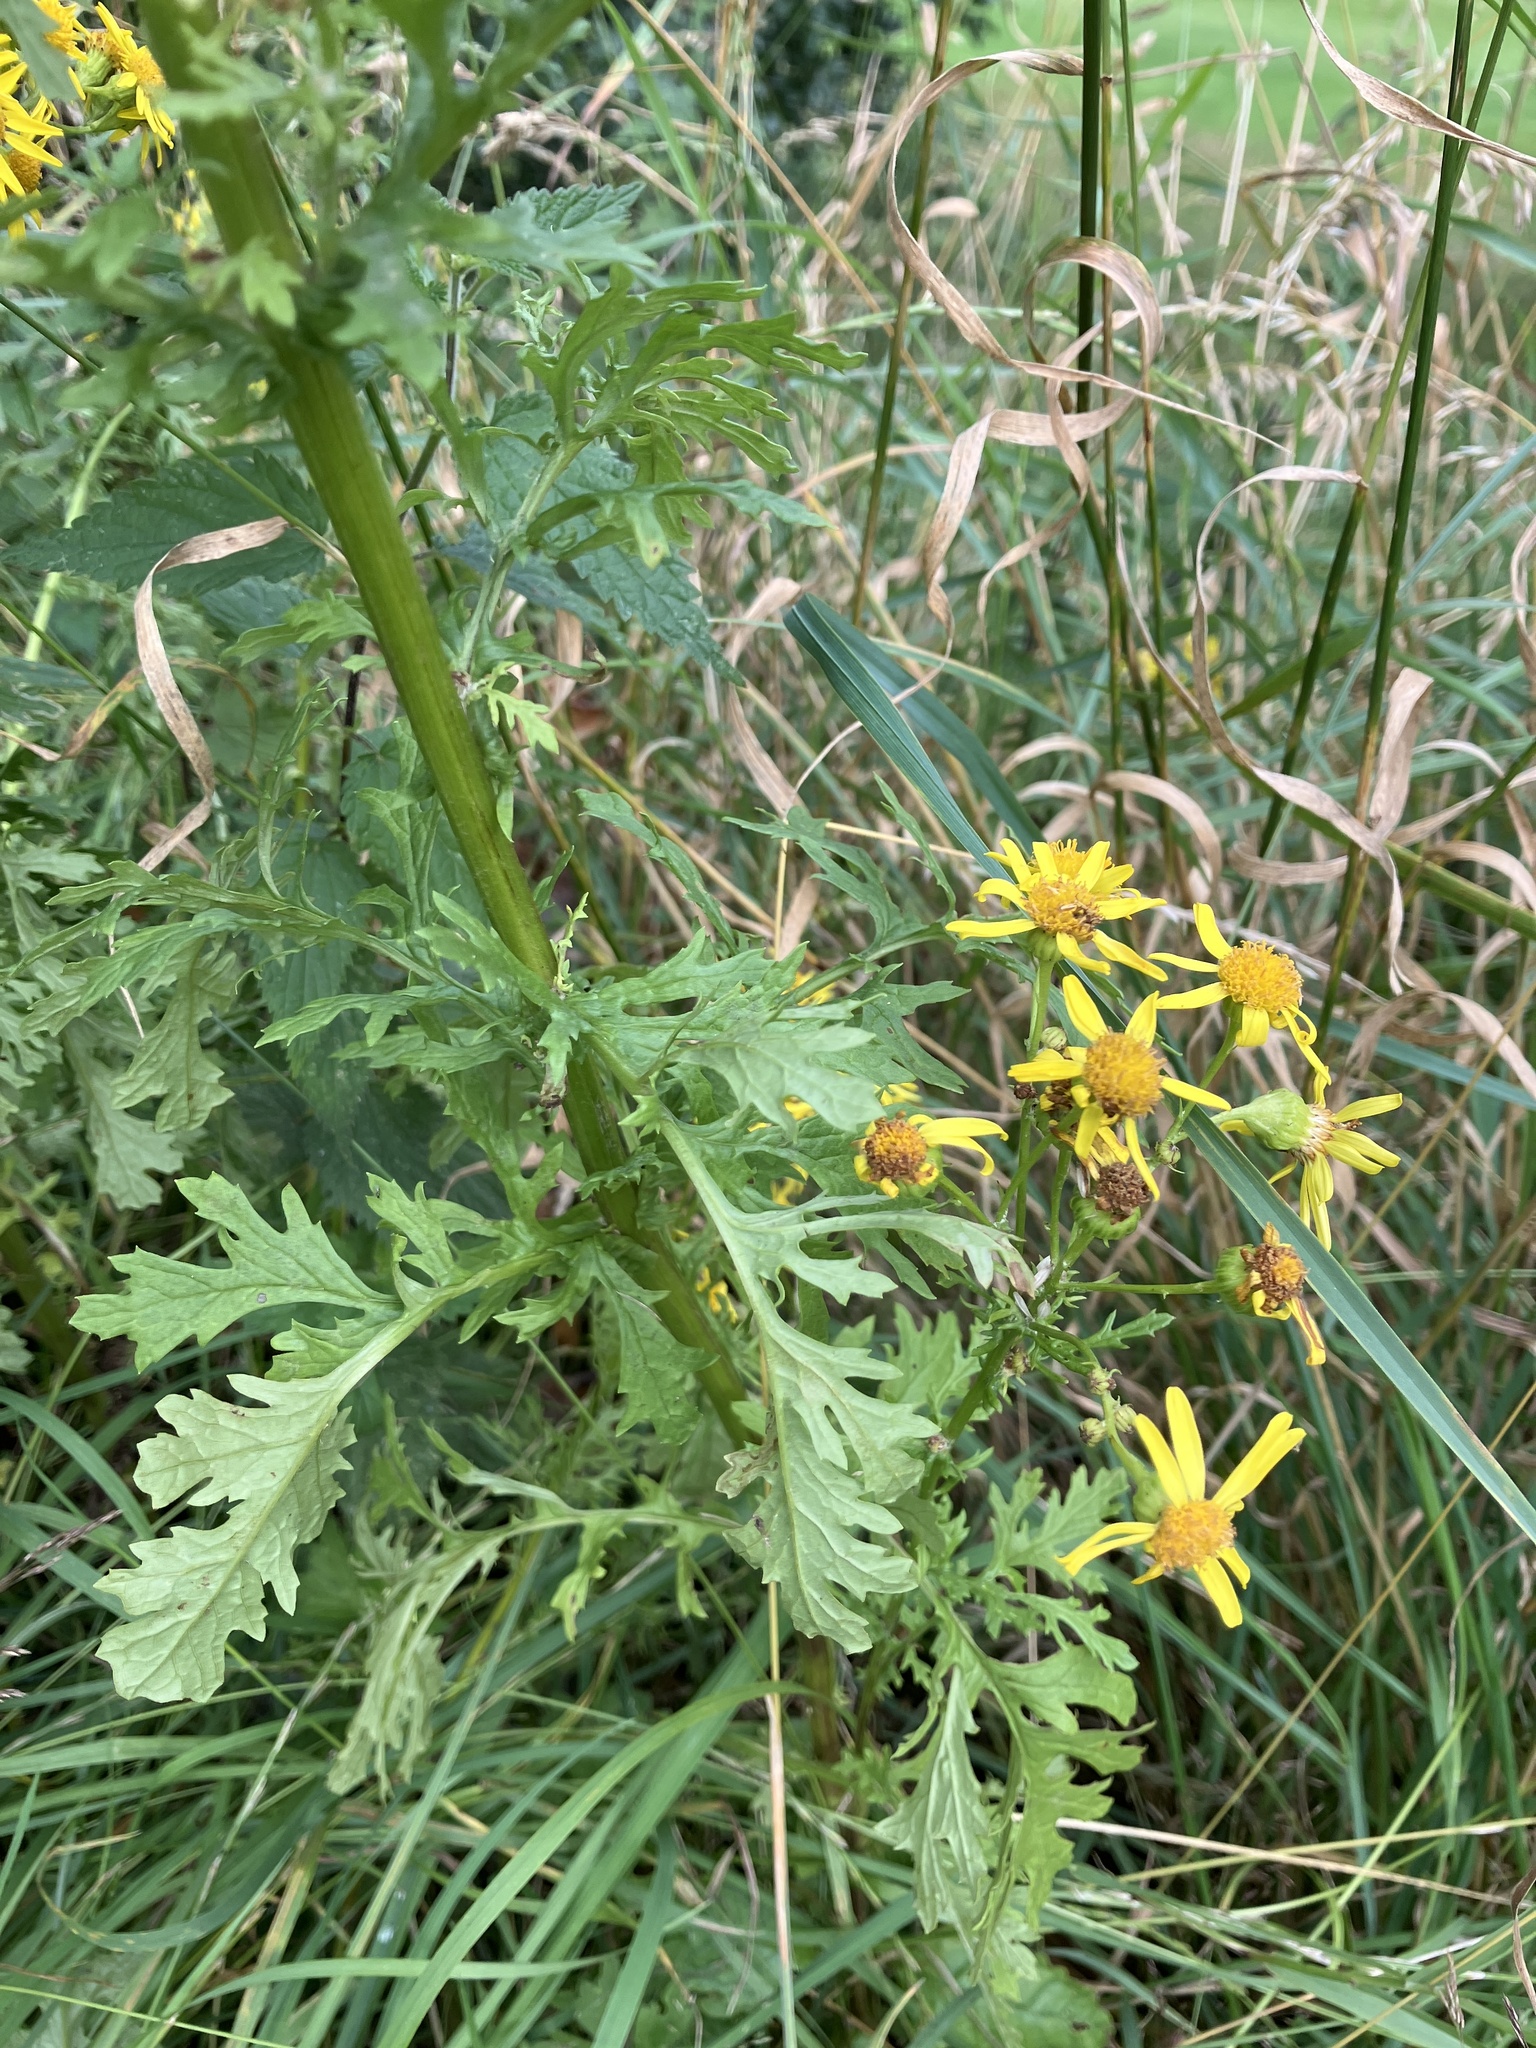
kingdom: Plantae
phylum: Tracheophyta
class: Magnoliopsida
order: Asterales
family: Asteraceae
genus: Jacobaea
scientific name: Jacobaea vulgaris
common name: Stinking willie
